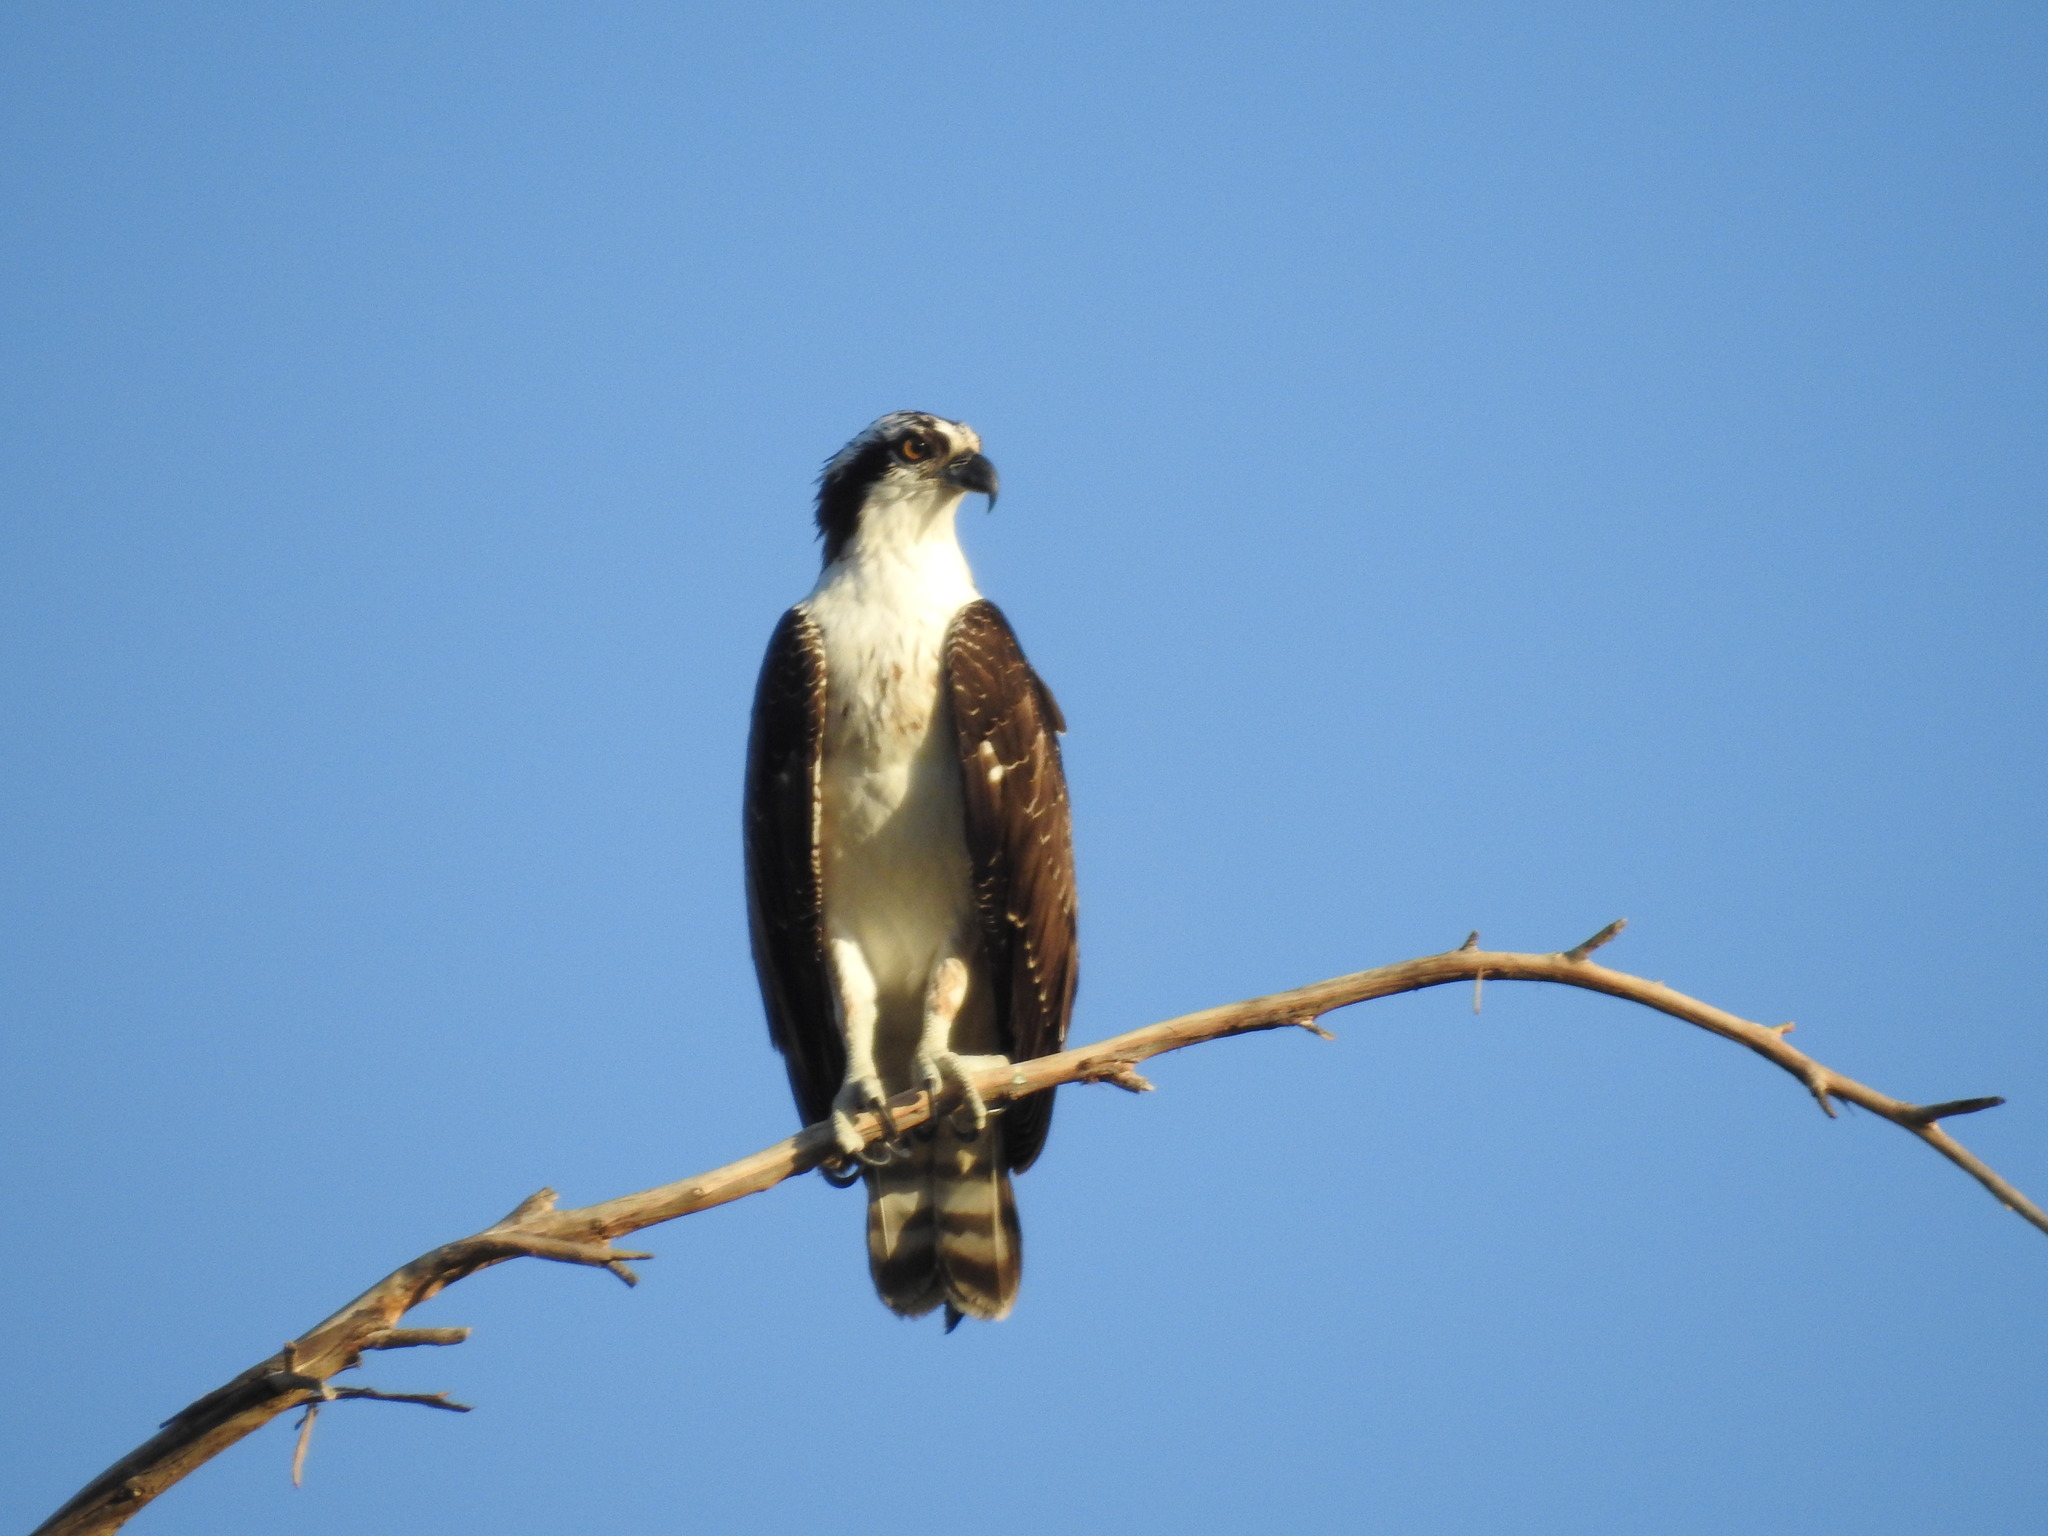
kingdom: Animalia
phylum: Chordata
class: Aves
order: Accipitriformes
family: Pandionidae
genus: Pandion
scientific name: Pandion haliaetus
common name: Osprey
